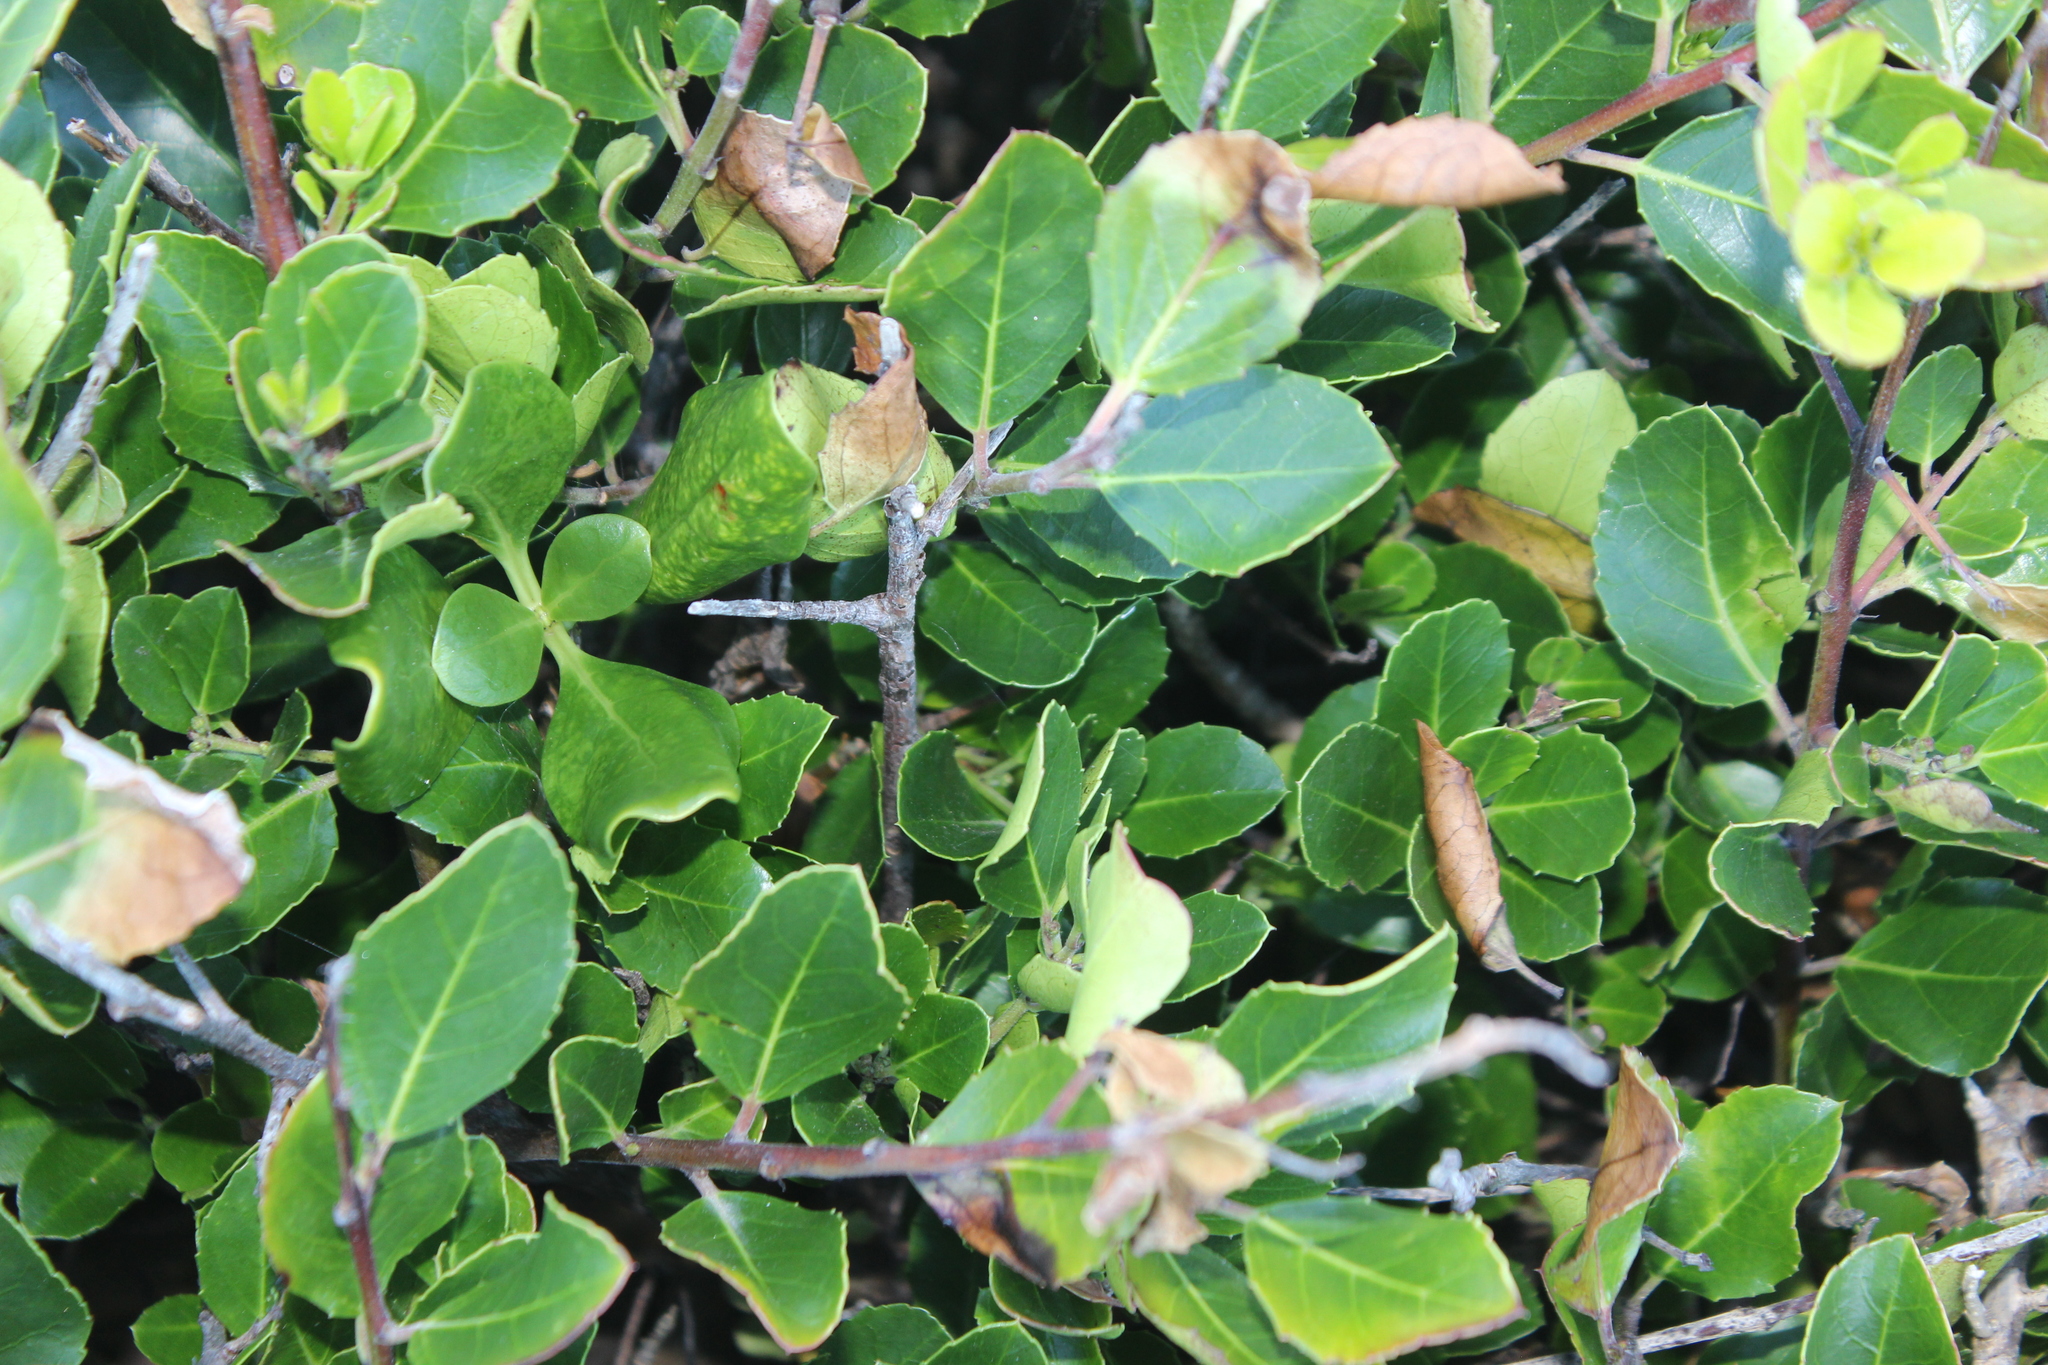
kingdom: Plantae
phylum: Tracheophyta
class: Magnoliopsida
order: Rosales
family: Rhamnaceae
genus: Rhamnus
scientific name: Rhamnus alaternus
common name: Mediterranean buckthorn
